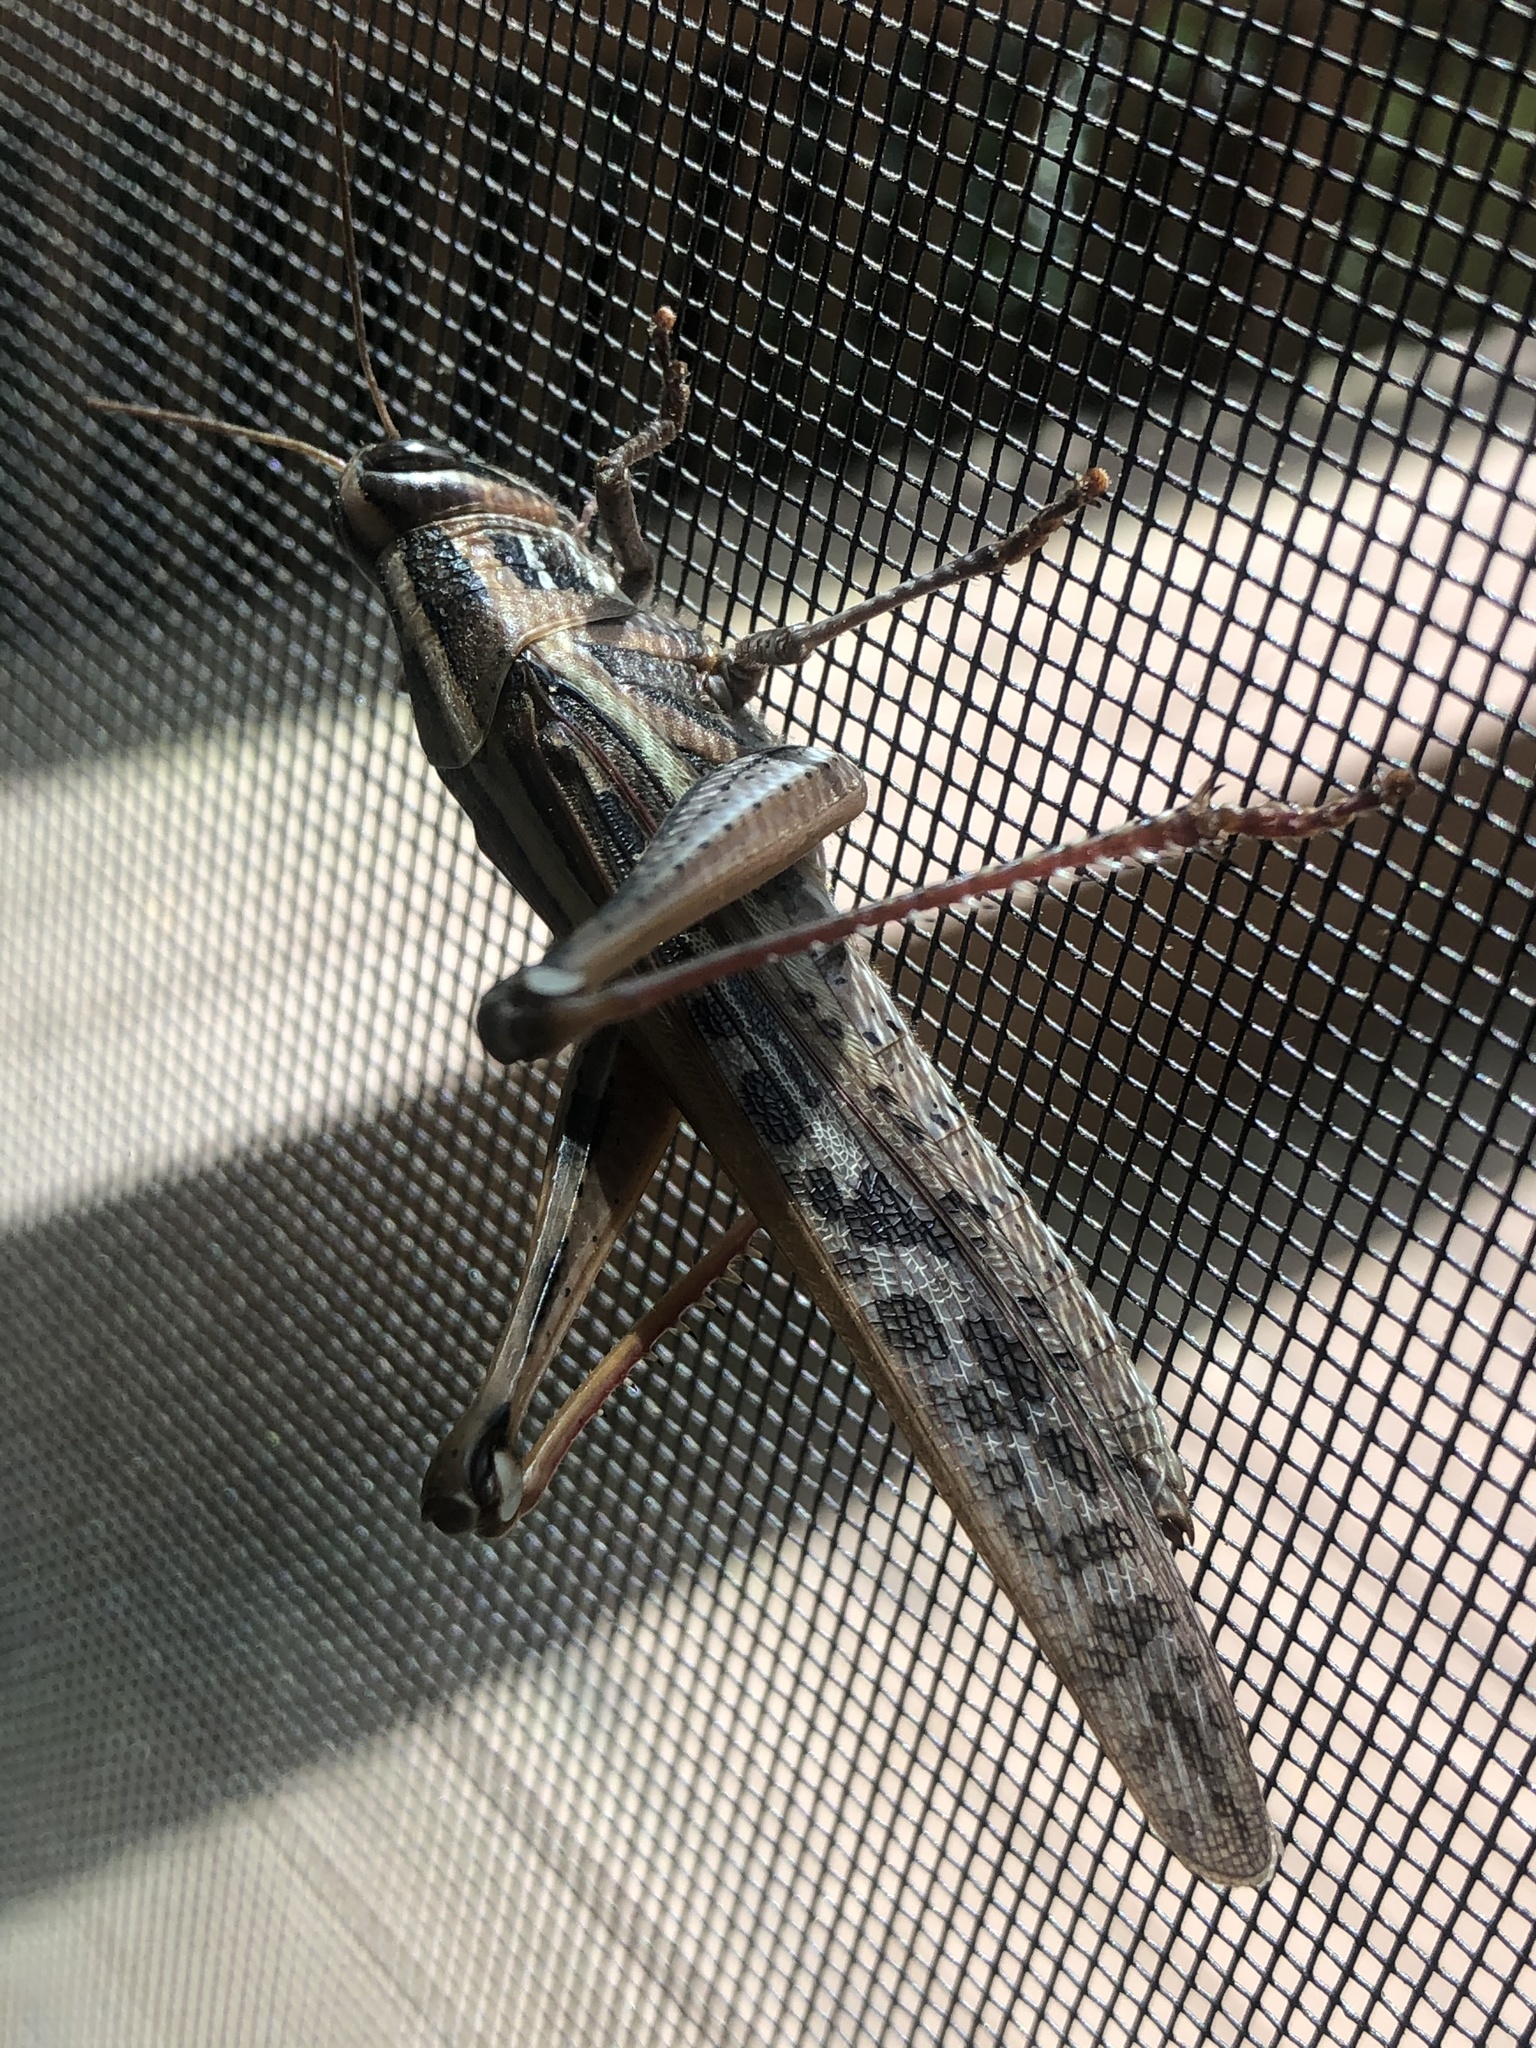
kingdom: Animalia
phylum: Arthropoda
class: Insecta
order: Orthoptera
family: Acrididae
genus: Schistocerca
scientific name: Schistocerca americana
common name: American bird locust
